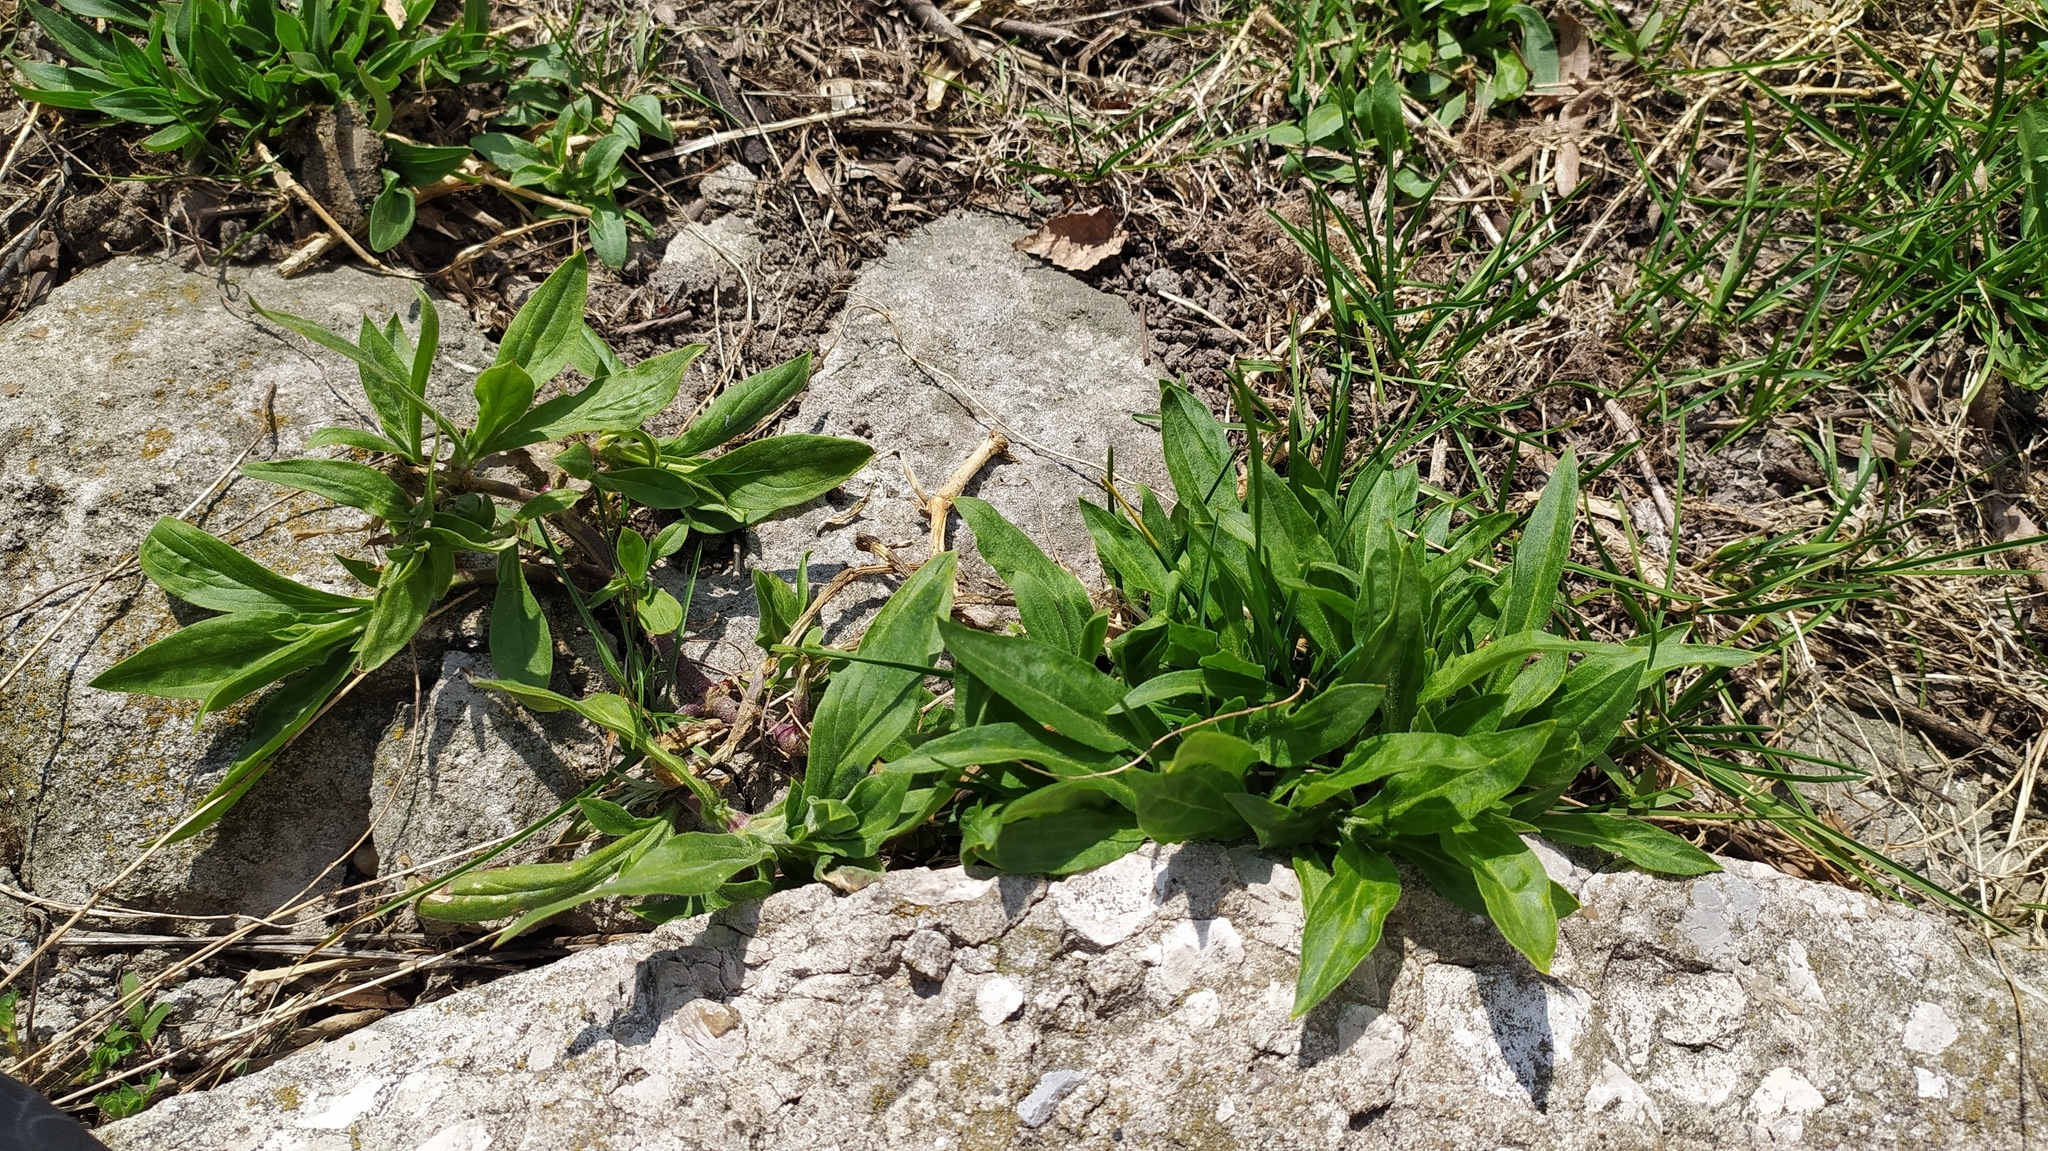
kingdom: Plantae
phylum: Tracheophyta
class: Magnoliopsida
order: Caryophyllales
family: Caryophyllaceae
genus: Silene
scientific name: Silene latifolia
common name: White campion
